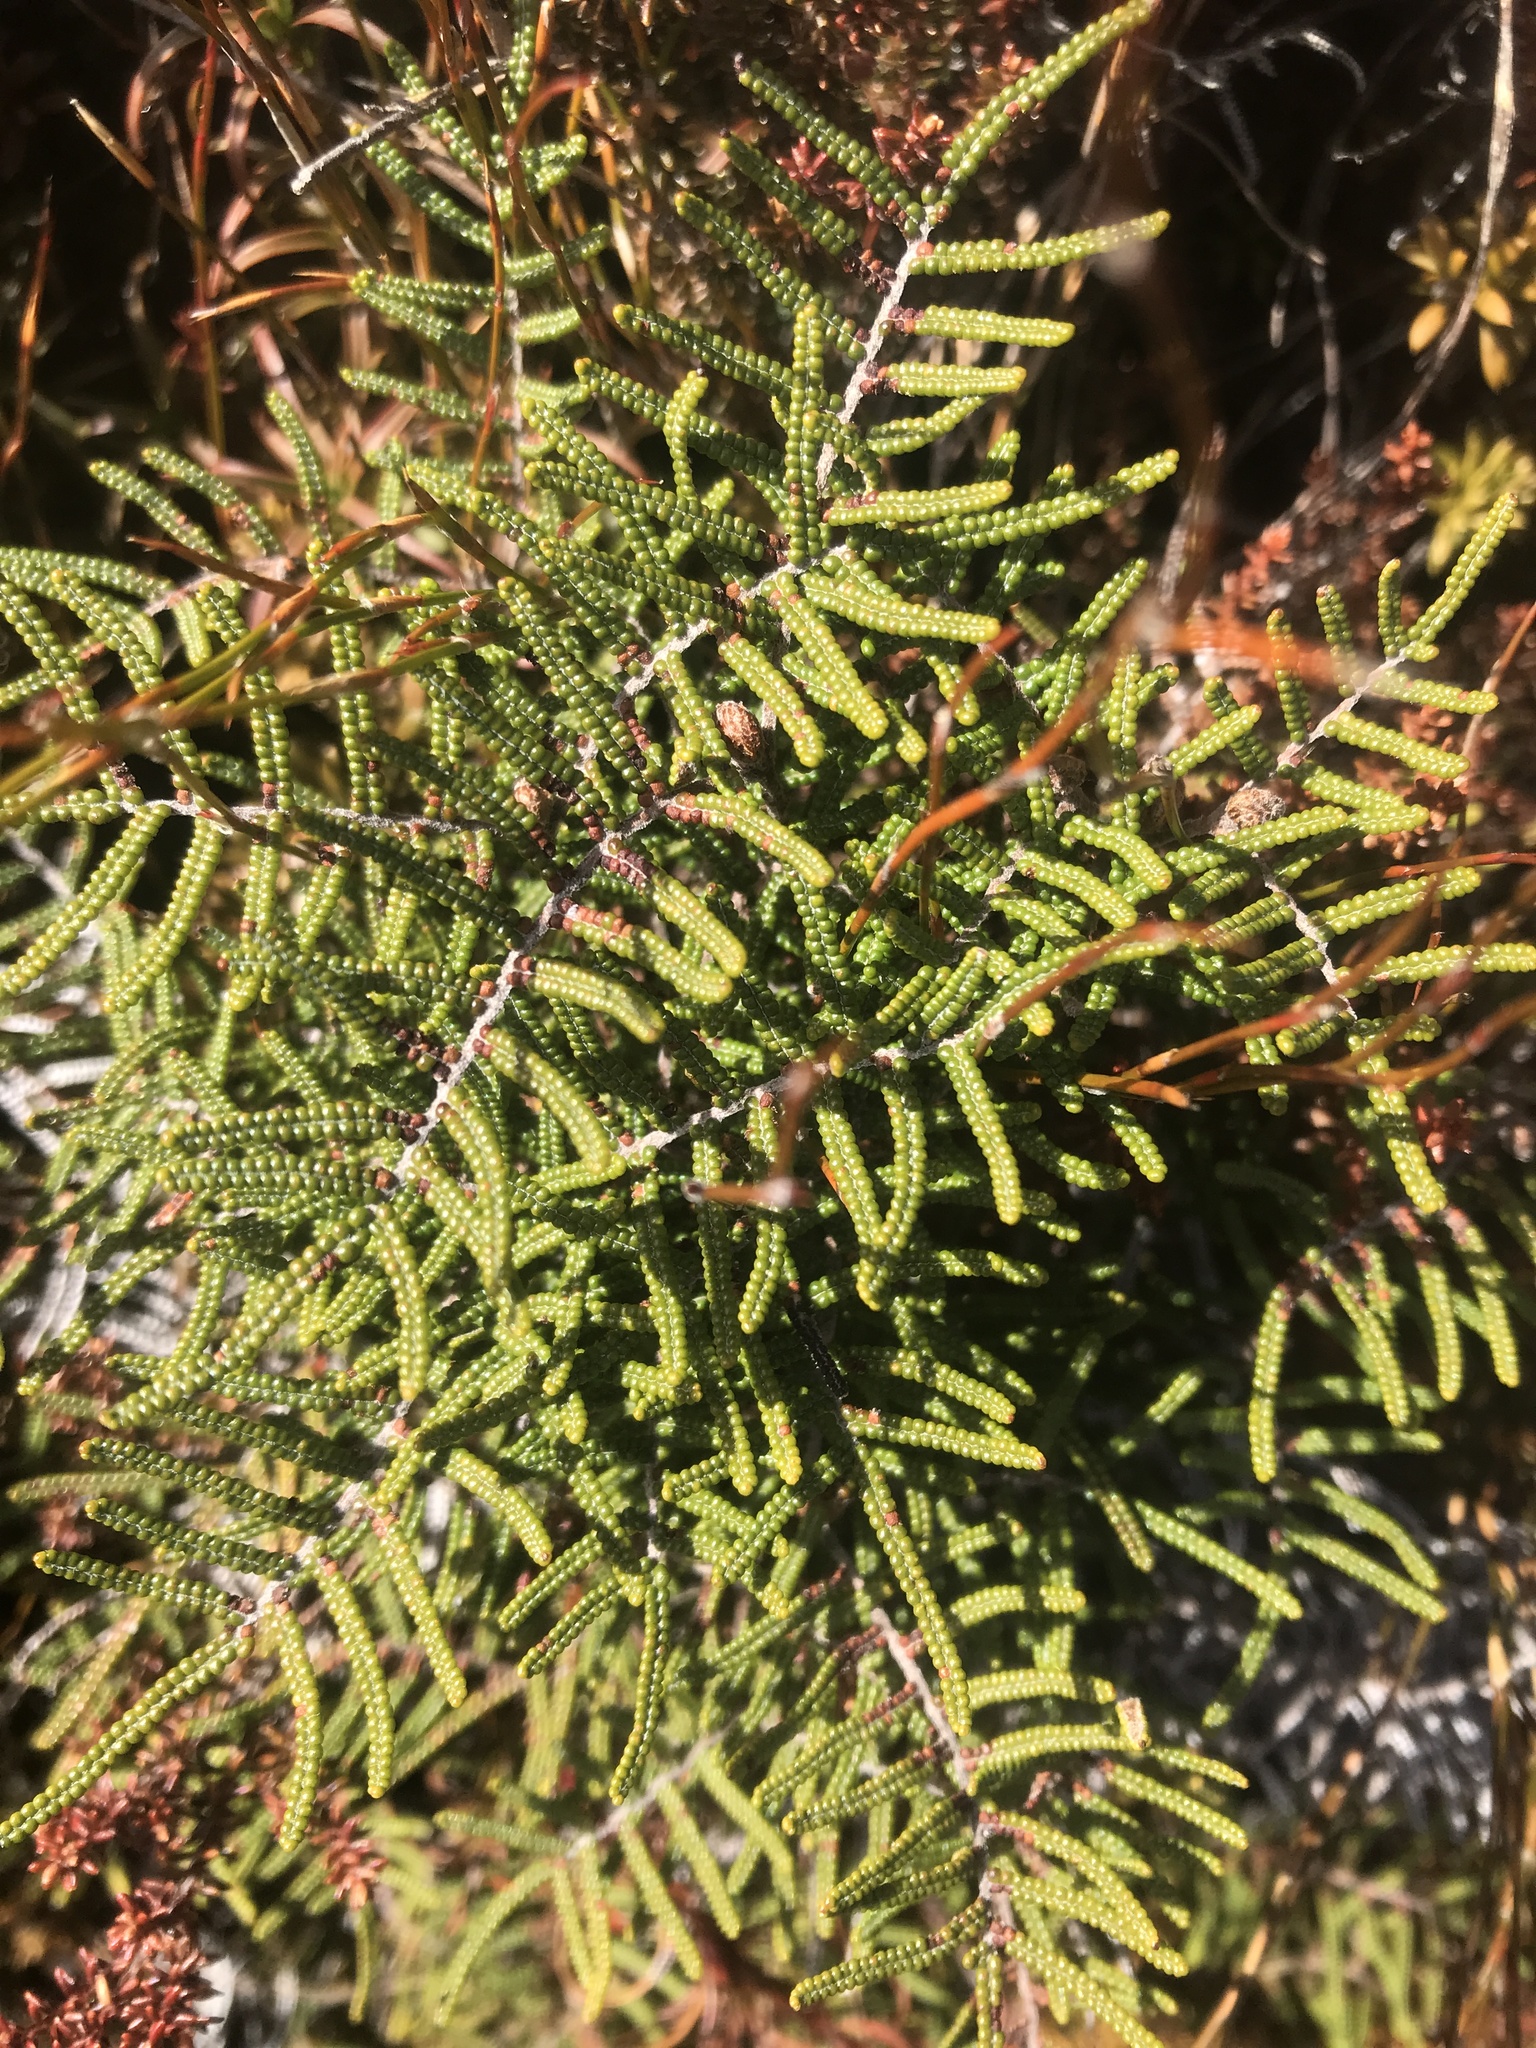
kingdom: Plantae
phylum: Tracheophyta
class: Polypodiopsida
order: Gleicheniales
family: Gleicheniaceae
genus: Gleichenia
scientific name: Gleichenia alpina
